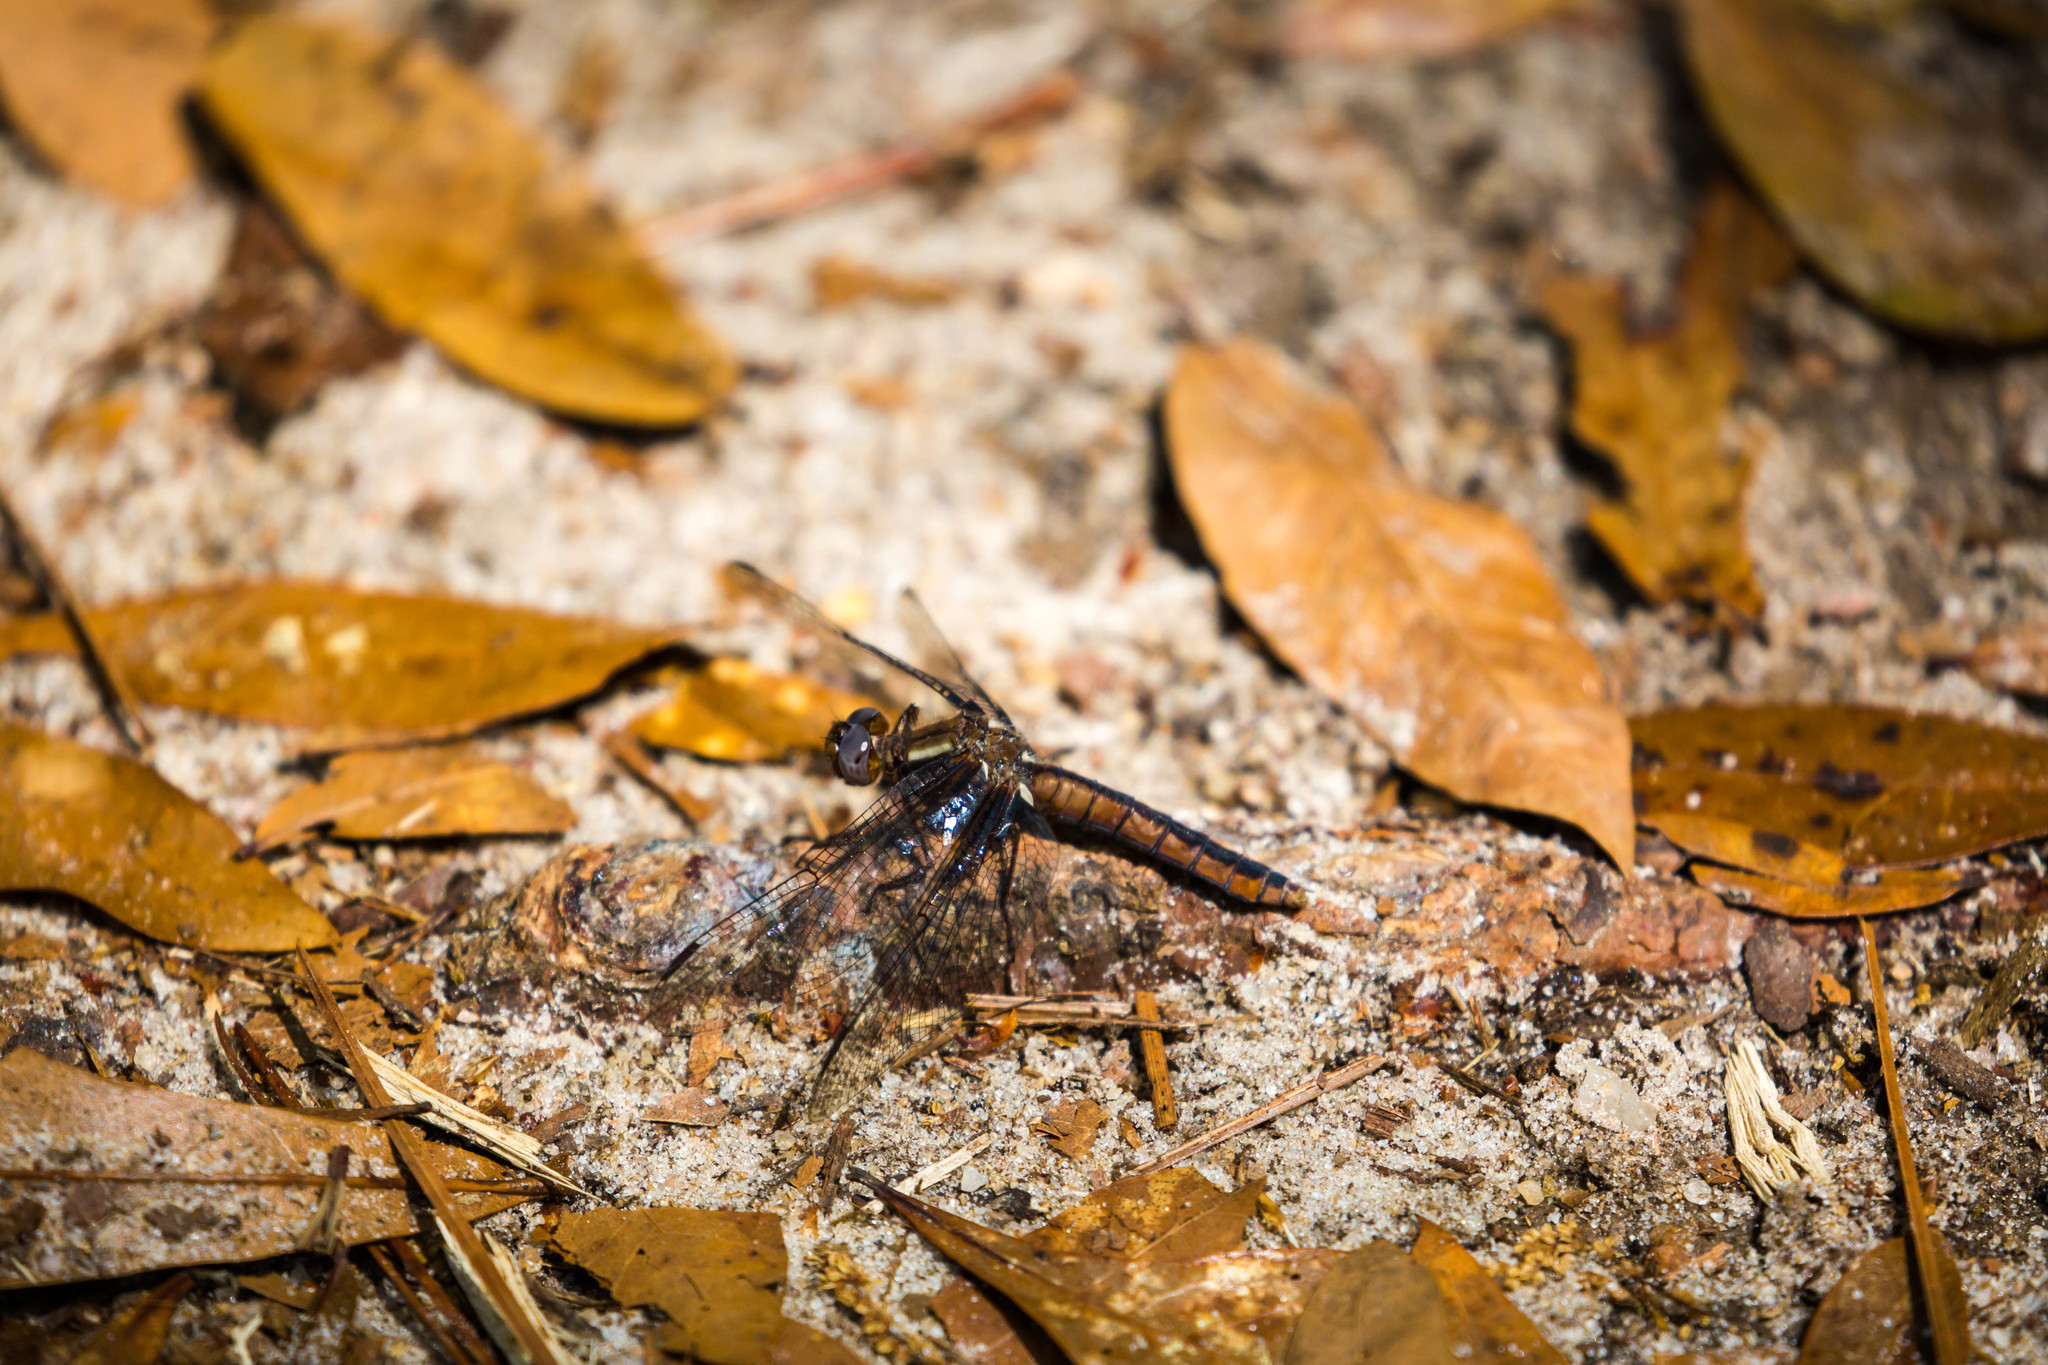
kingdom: Animalia
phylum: Arthropoda
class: Insecta
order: Odonata
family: Libellulidae
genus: Ladona
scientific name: Ladona deplanata
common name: Blue corporal
